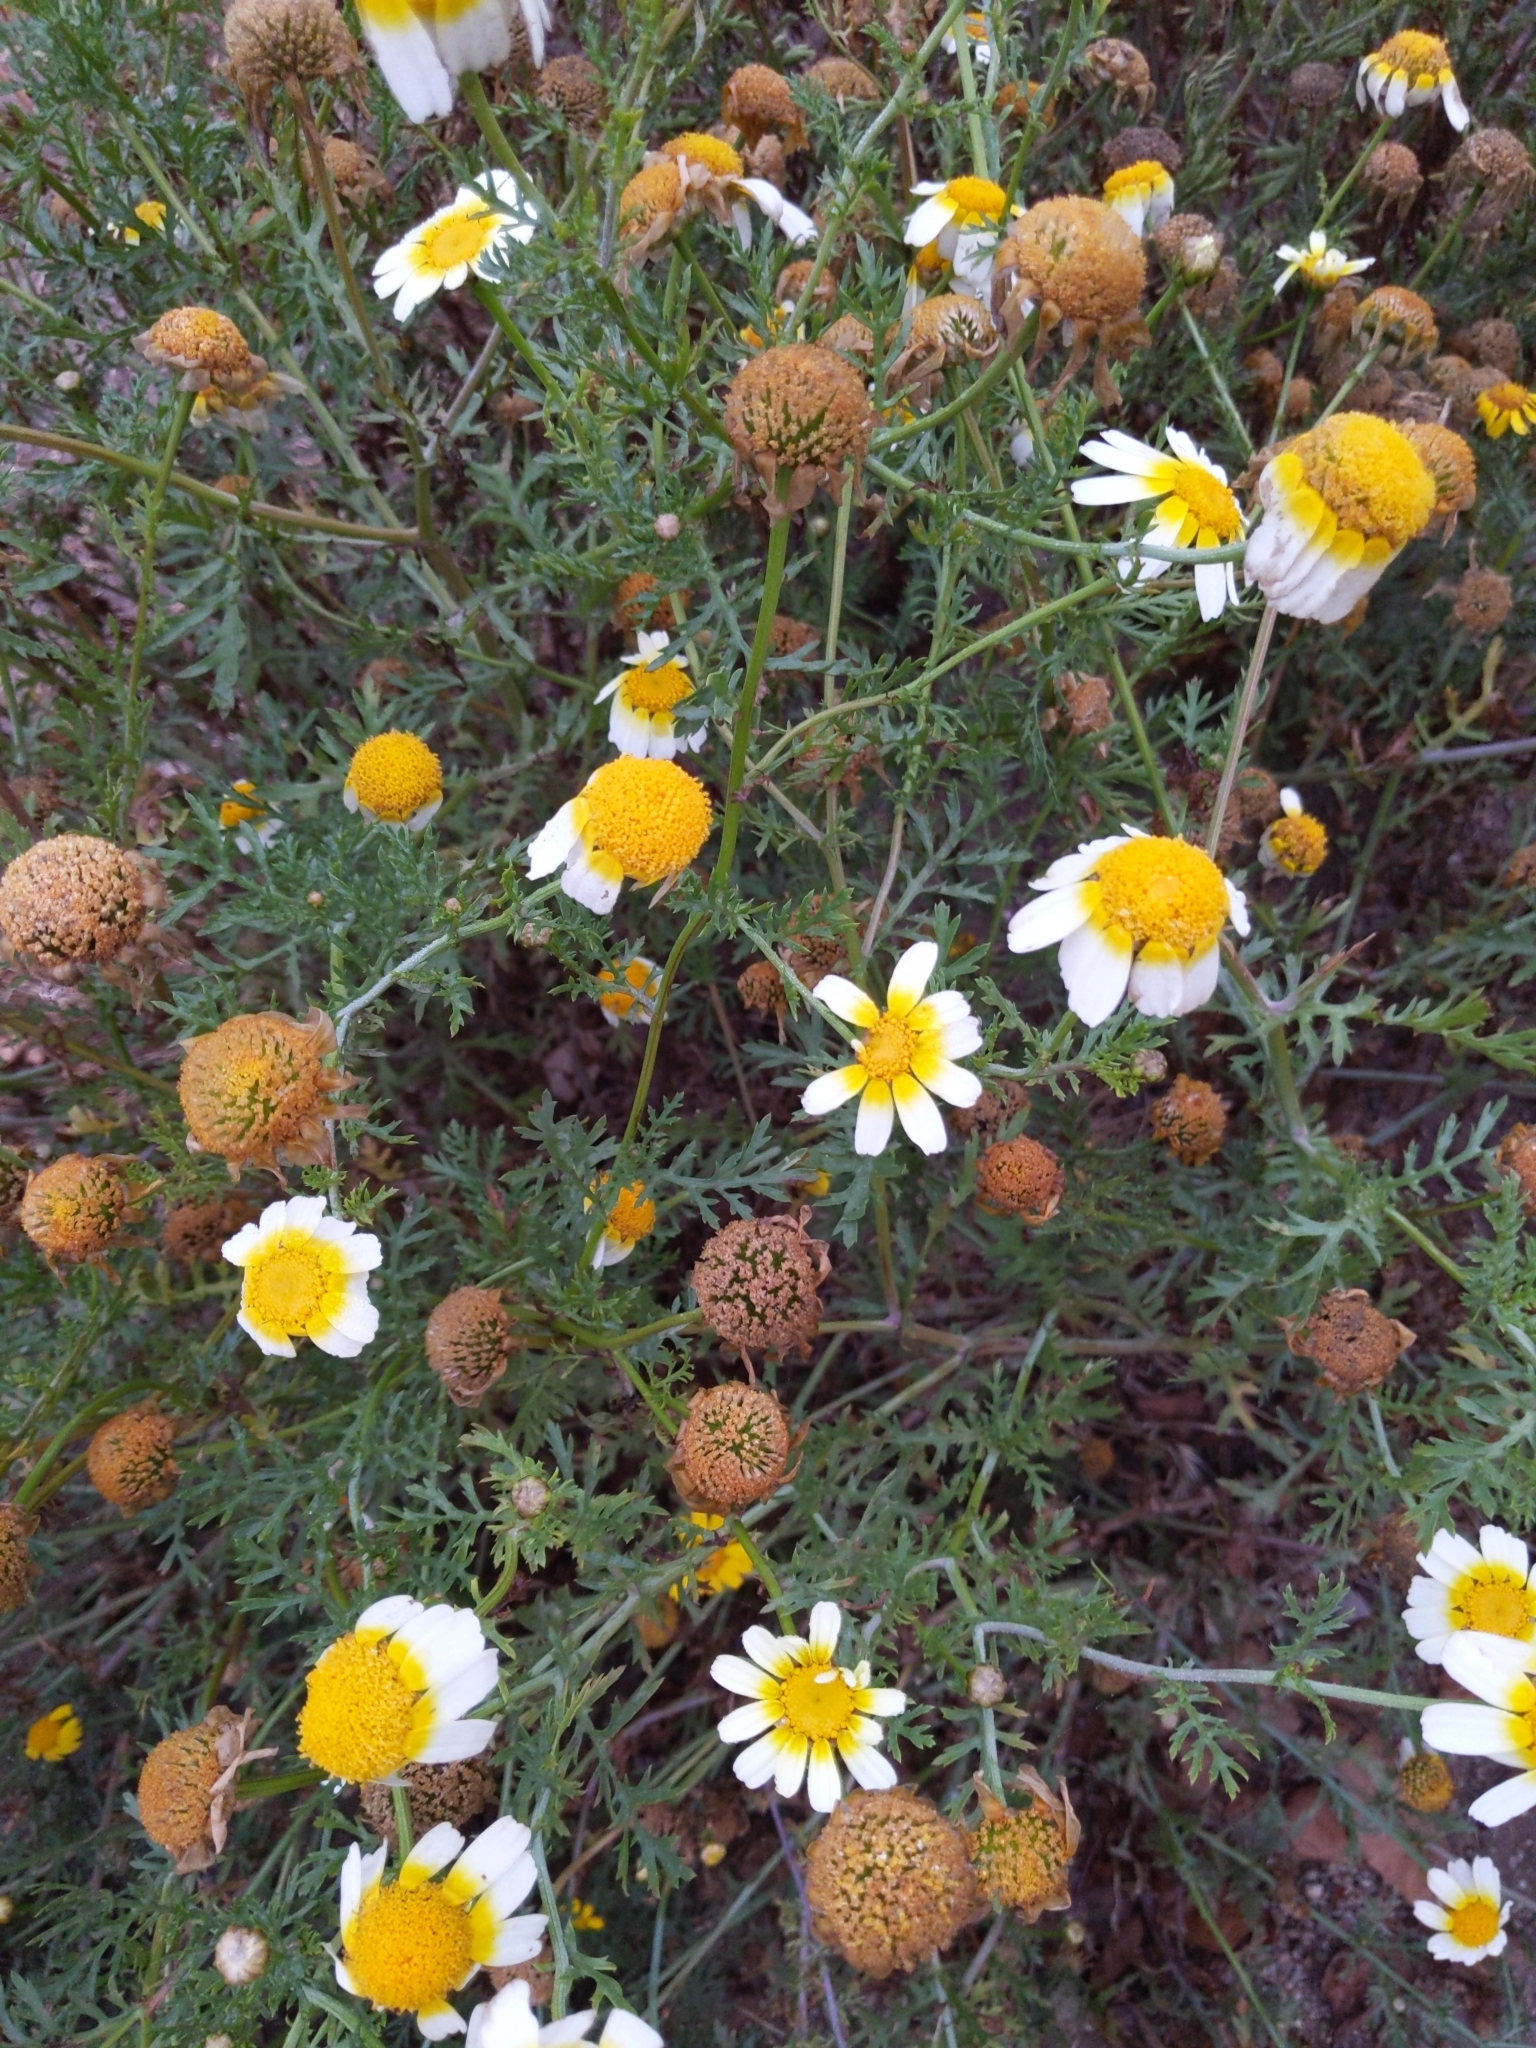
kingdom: Plantae
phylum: Tracheophyta
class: Magnoliopsida
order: Asterales
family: Asteraceae
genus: Glebionis
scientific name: Glebionis coronaria
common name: Crowndaisy
